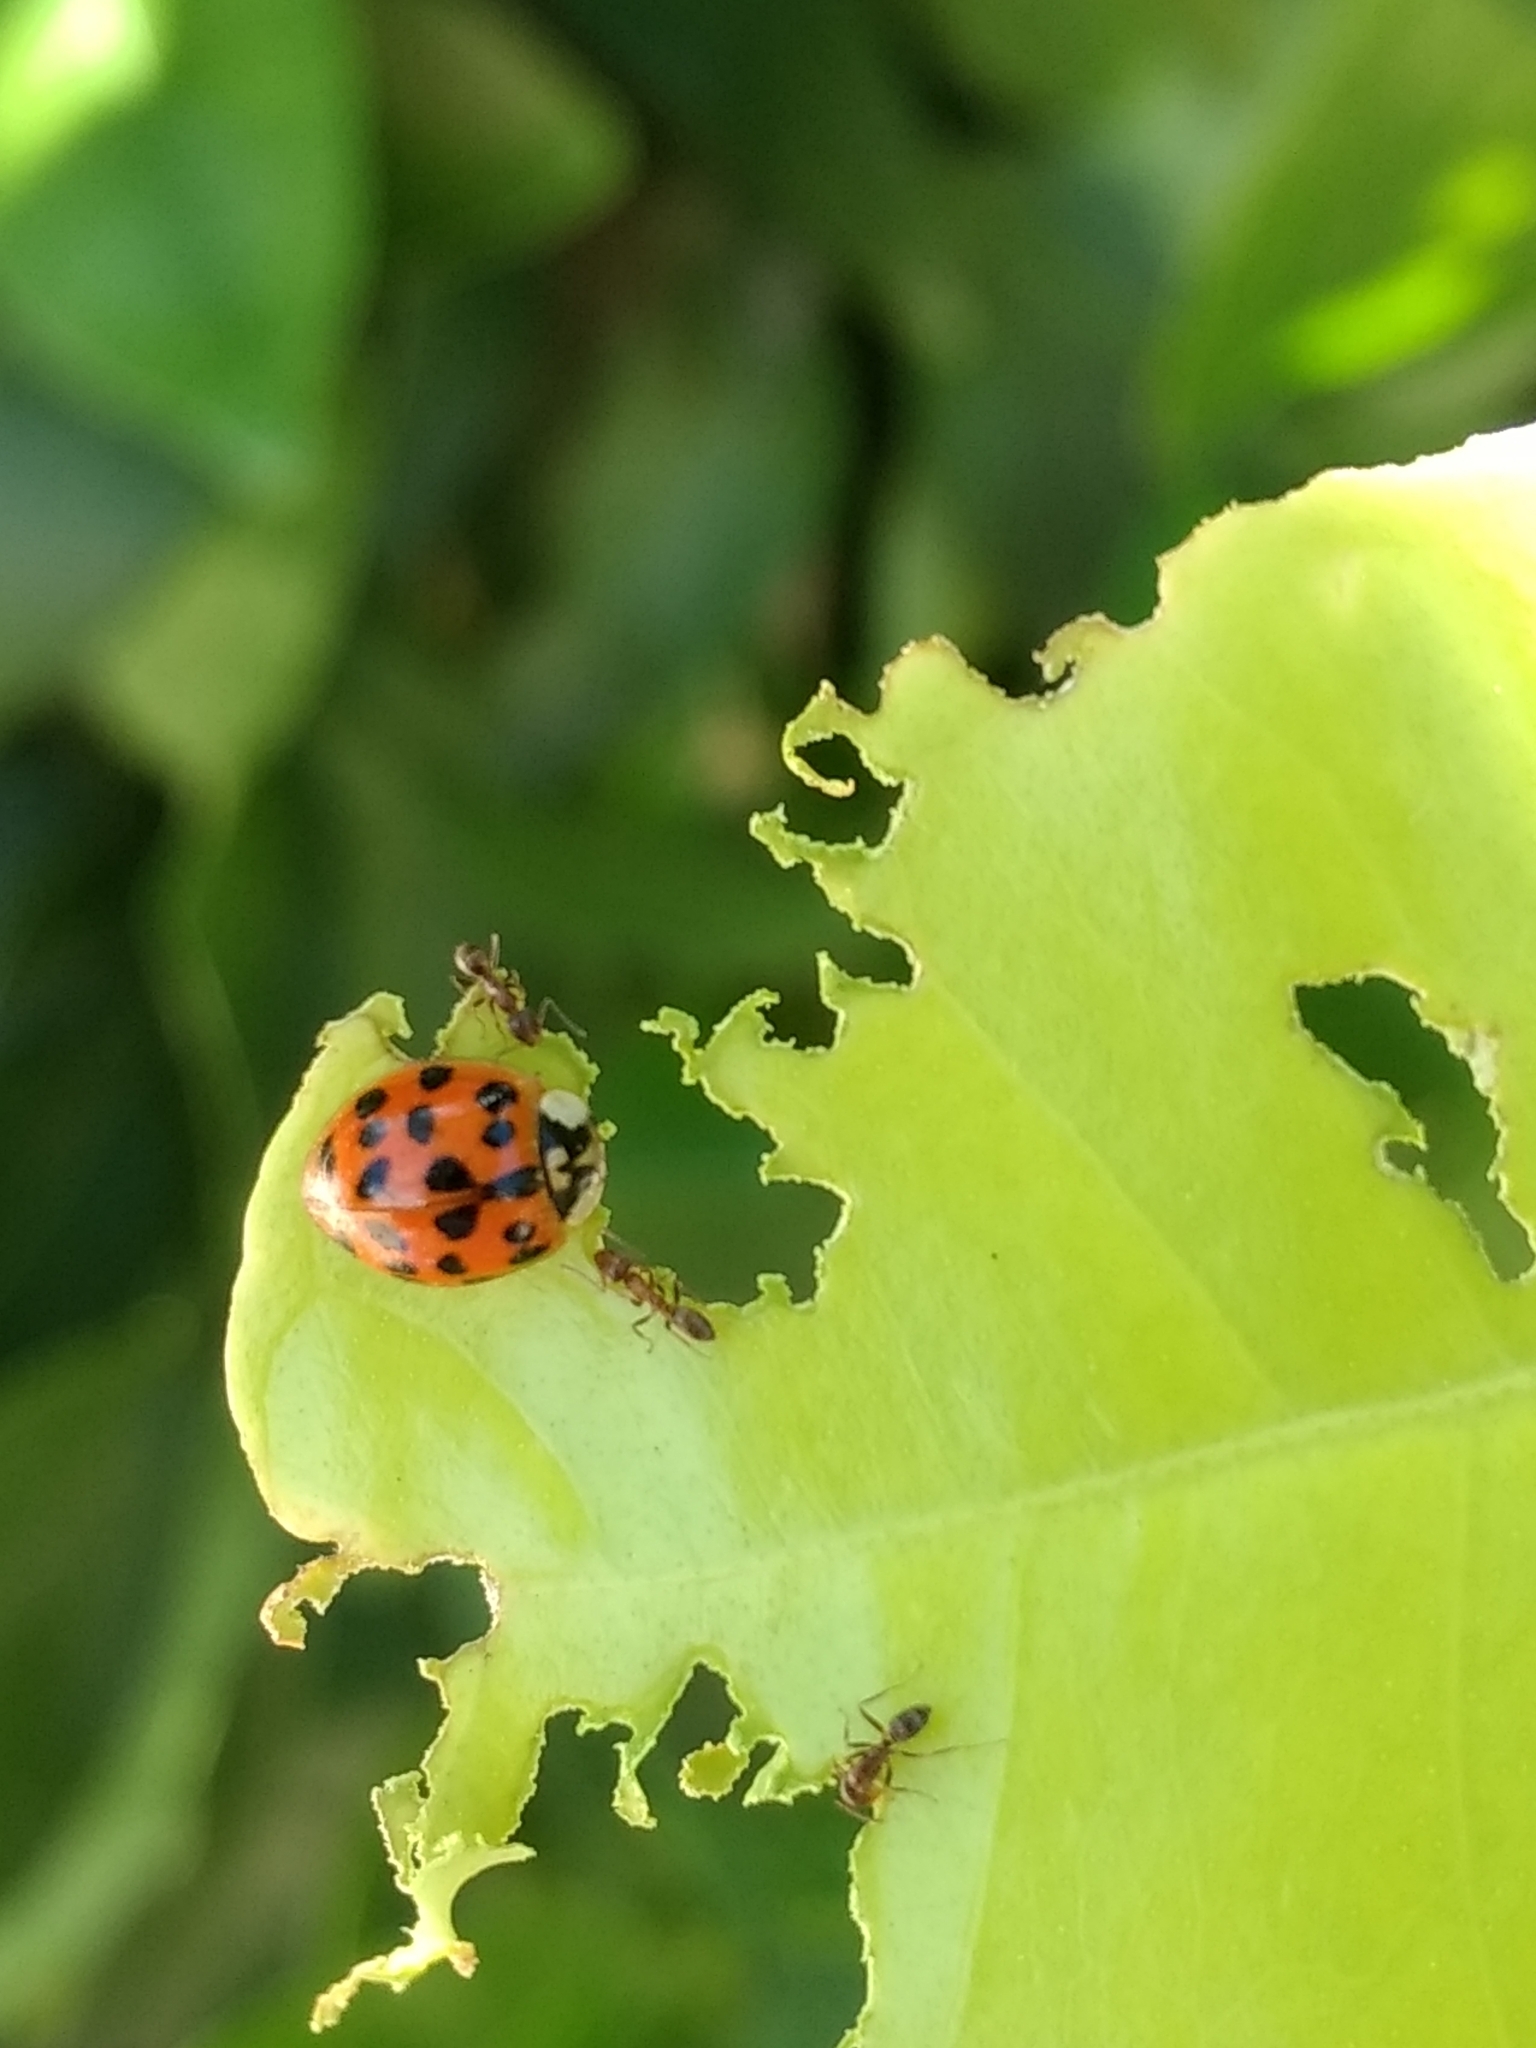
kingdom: Animalia
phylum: Arthropoda
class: Insecta
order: Coleoptera
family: Coccinellidae
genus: Harmonia
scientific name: Harmonia axyridis
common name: Harlequin ladybird
